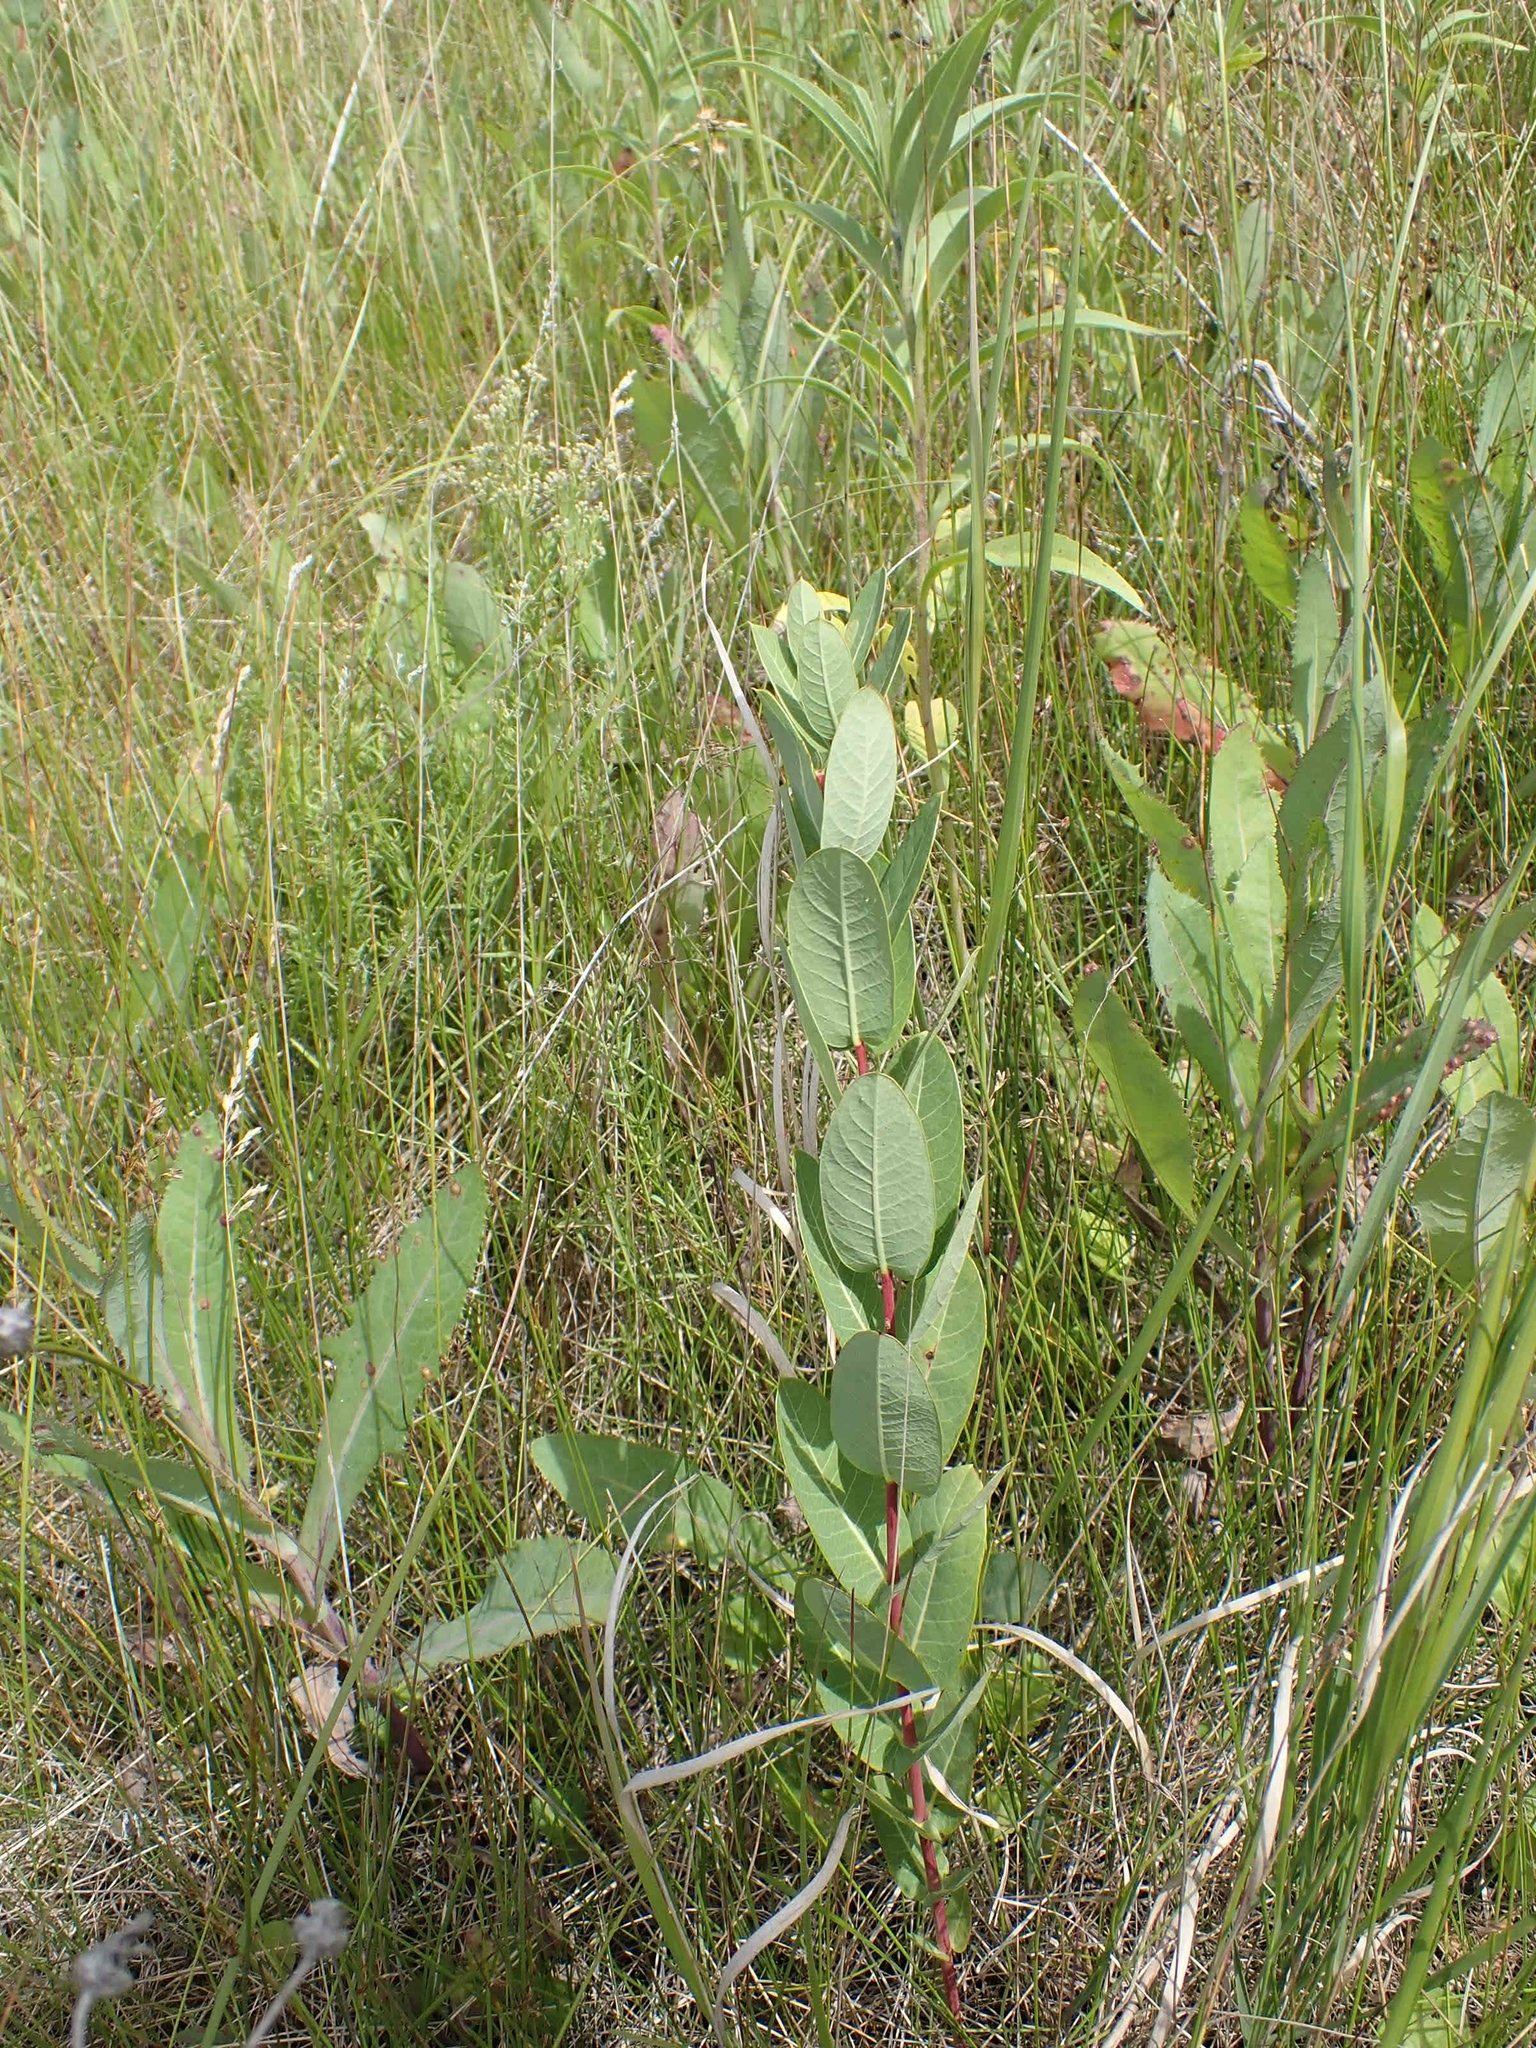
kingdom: Plantae
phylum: Tracheophyta
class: Magnoliopsida
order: Gentianales
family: Apocynaceae
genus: Apocynum
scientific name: Apocynum cannabinum
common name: Hemp dogbane
